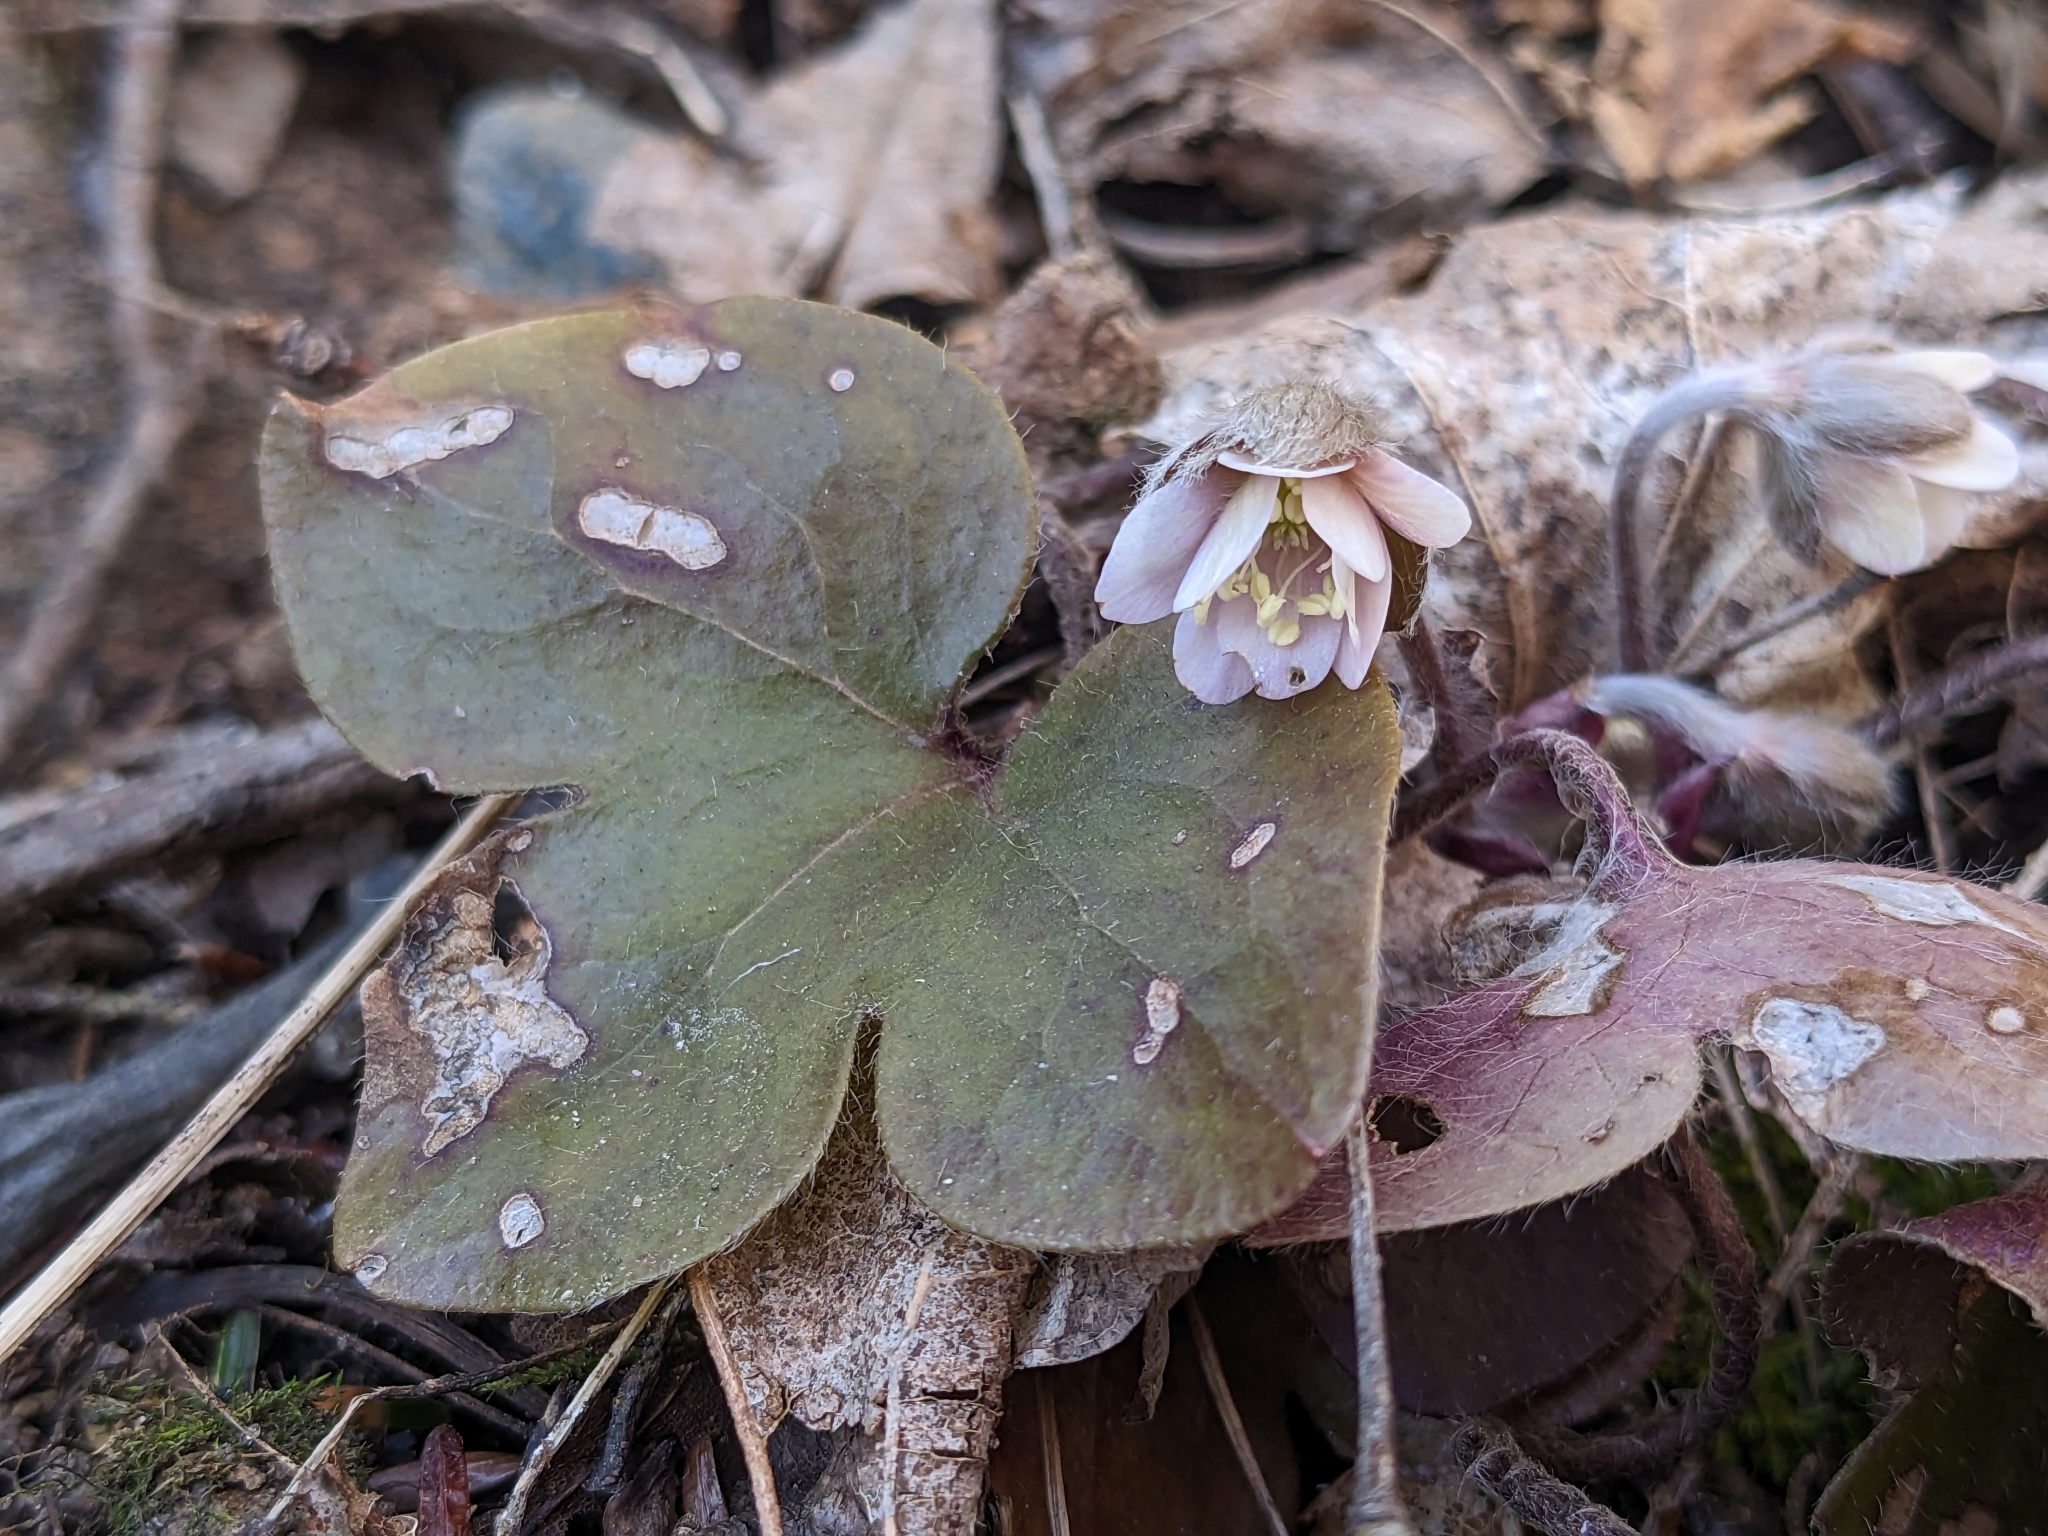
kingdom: Plantae
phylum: Tracheophyta
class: Magnoliopsida
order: Ranunculales
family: Ranunculaceae
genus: Hepatica
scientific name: Hepatica americana
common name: American hepatica
